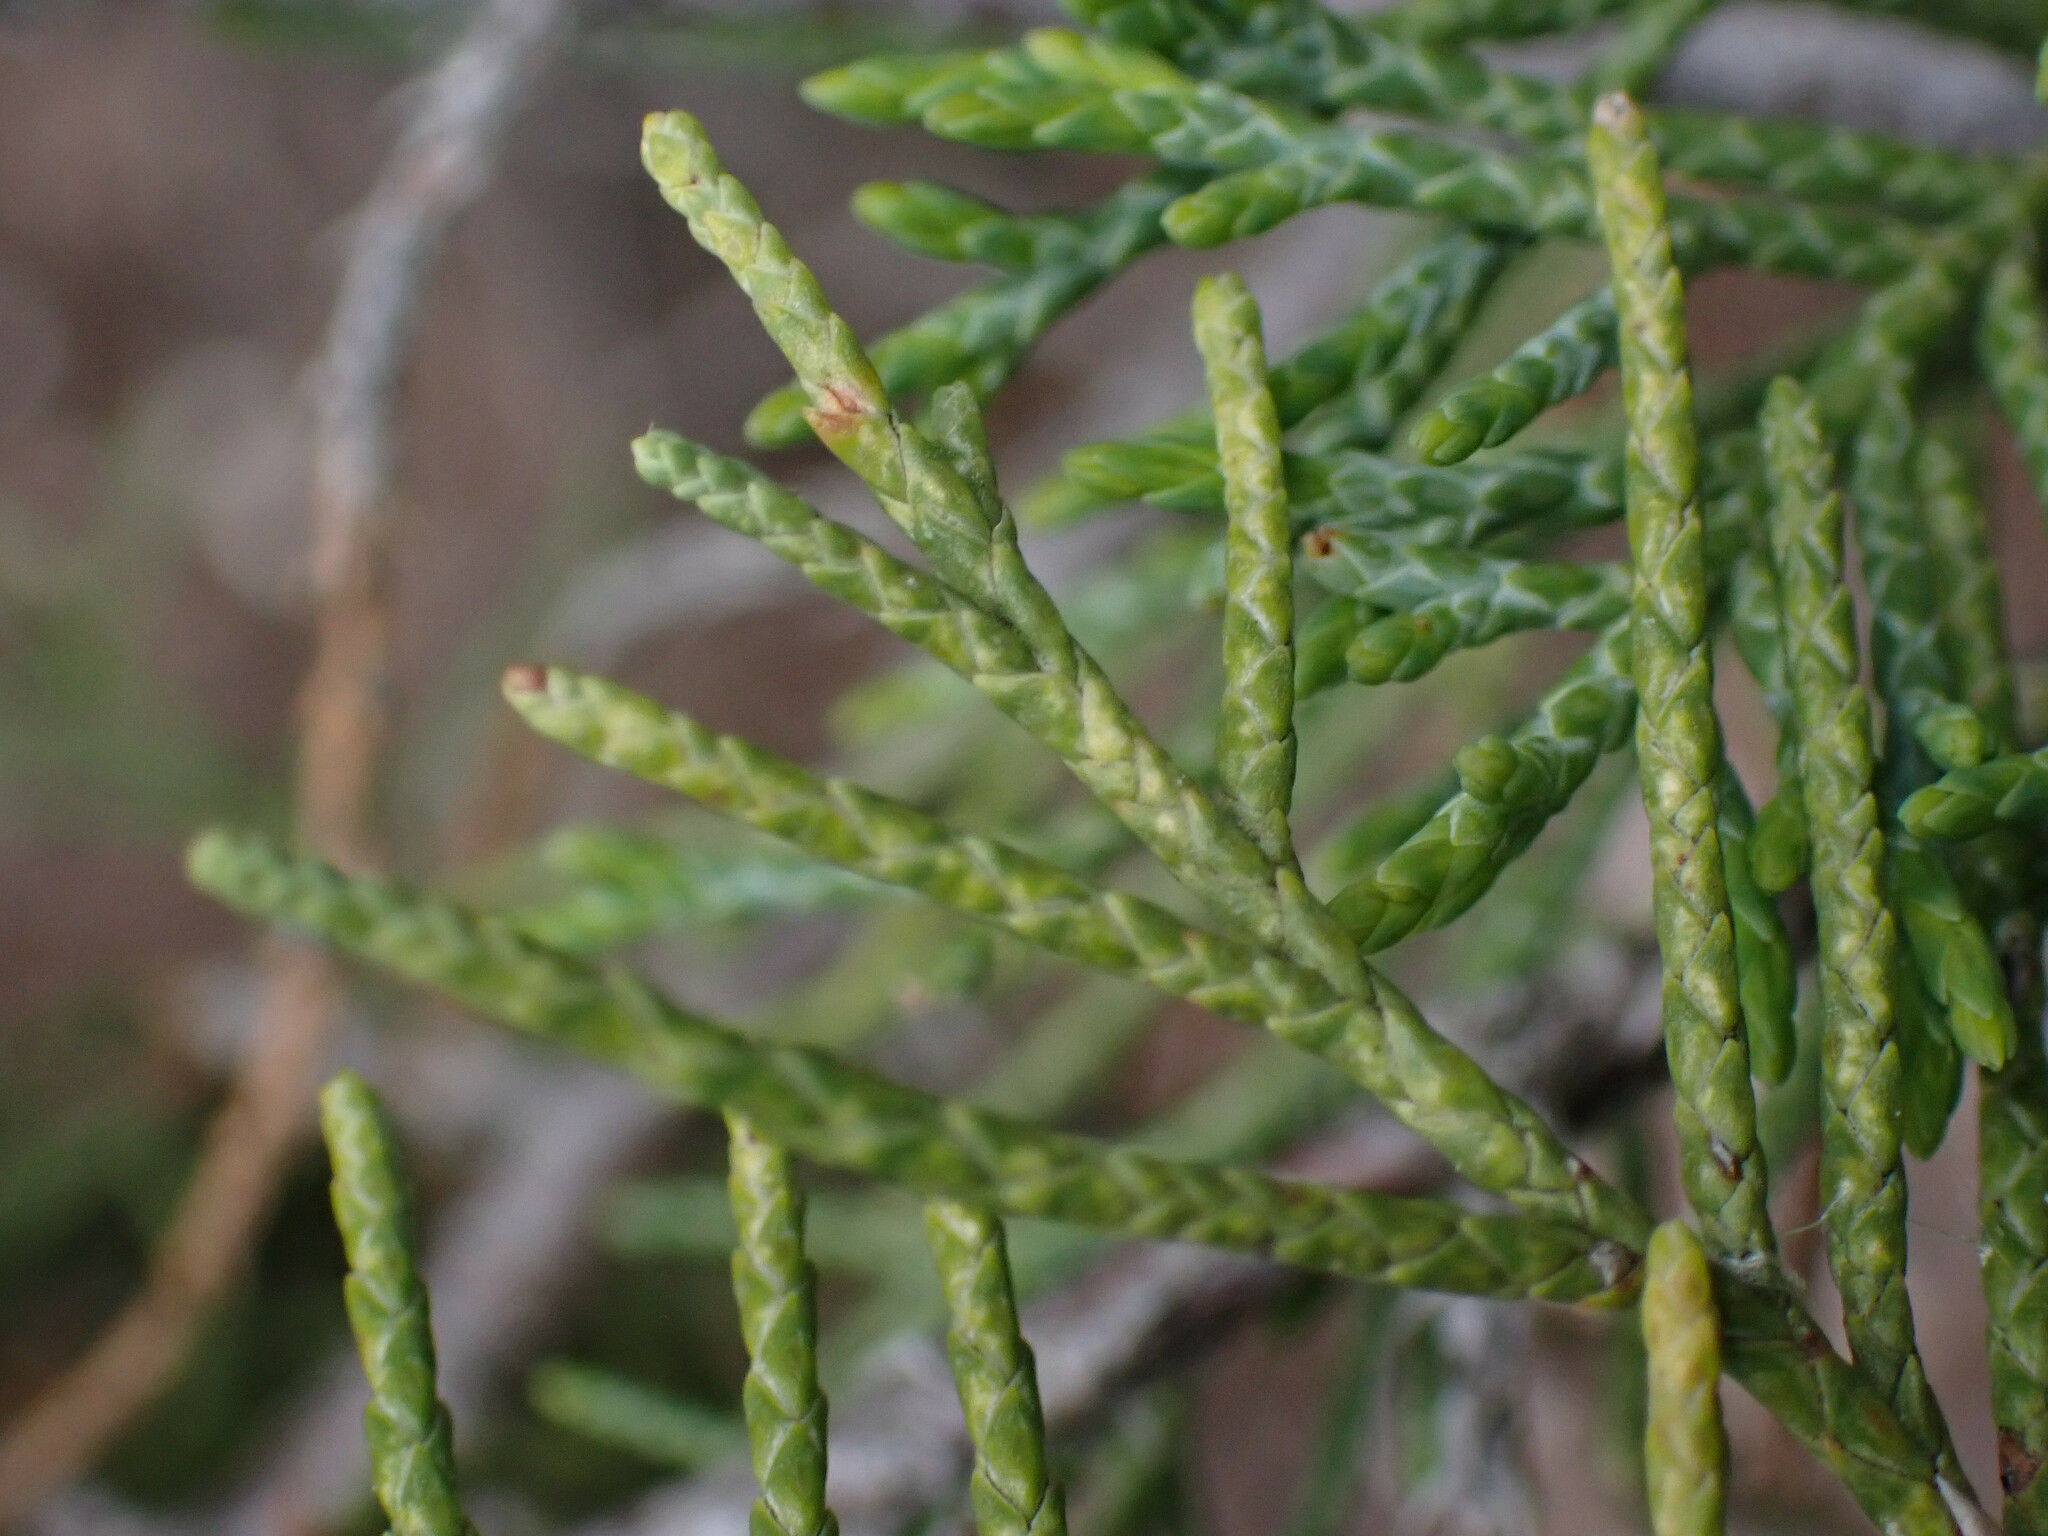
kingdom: Plantae
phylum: Tracheophyta
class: Pinopsida
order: Pinales
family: Cupressaceae
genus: Juniperus
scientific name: Juniperus scopulorum
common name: Rocky mountain juniper
